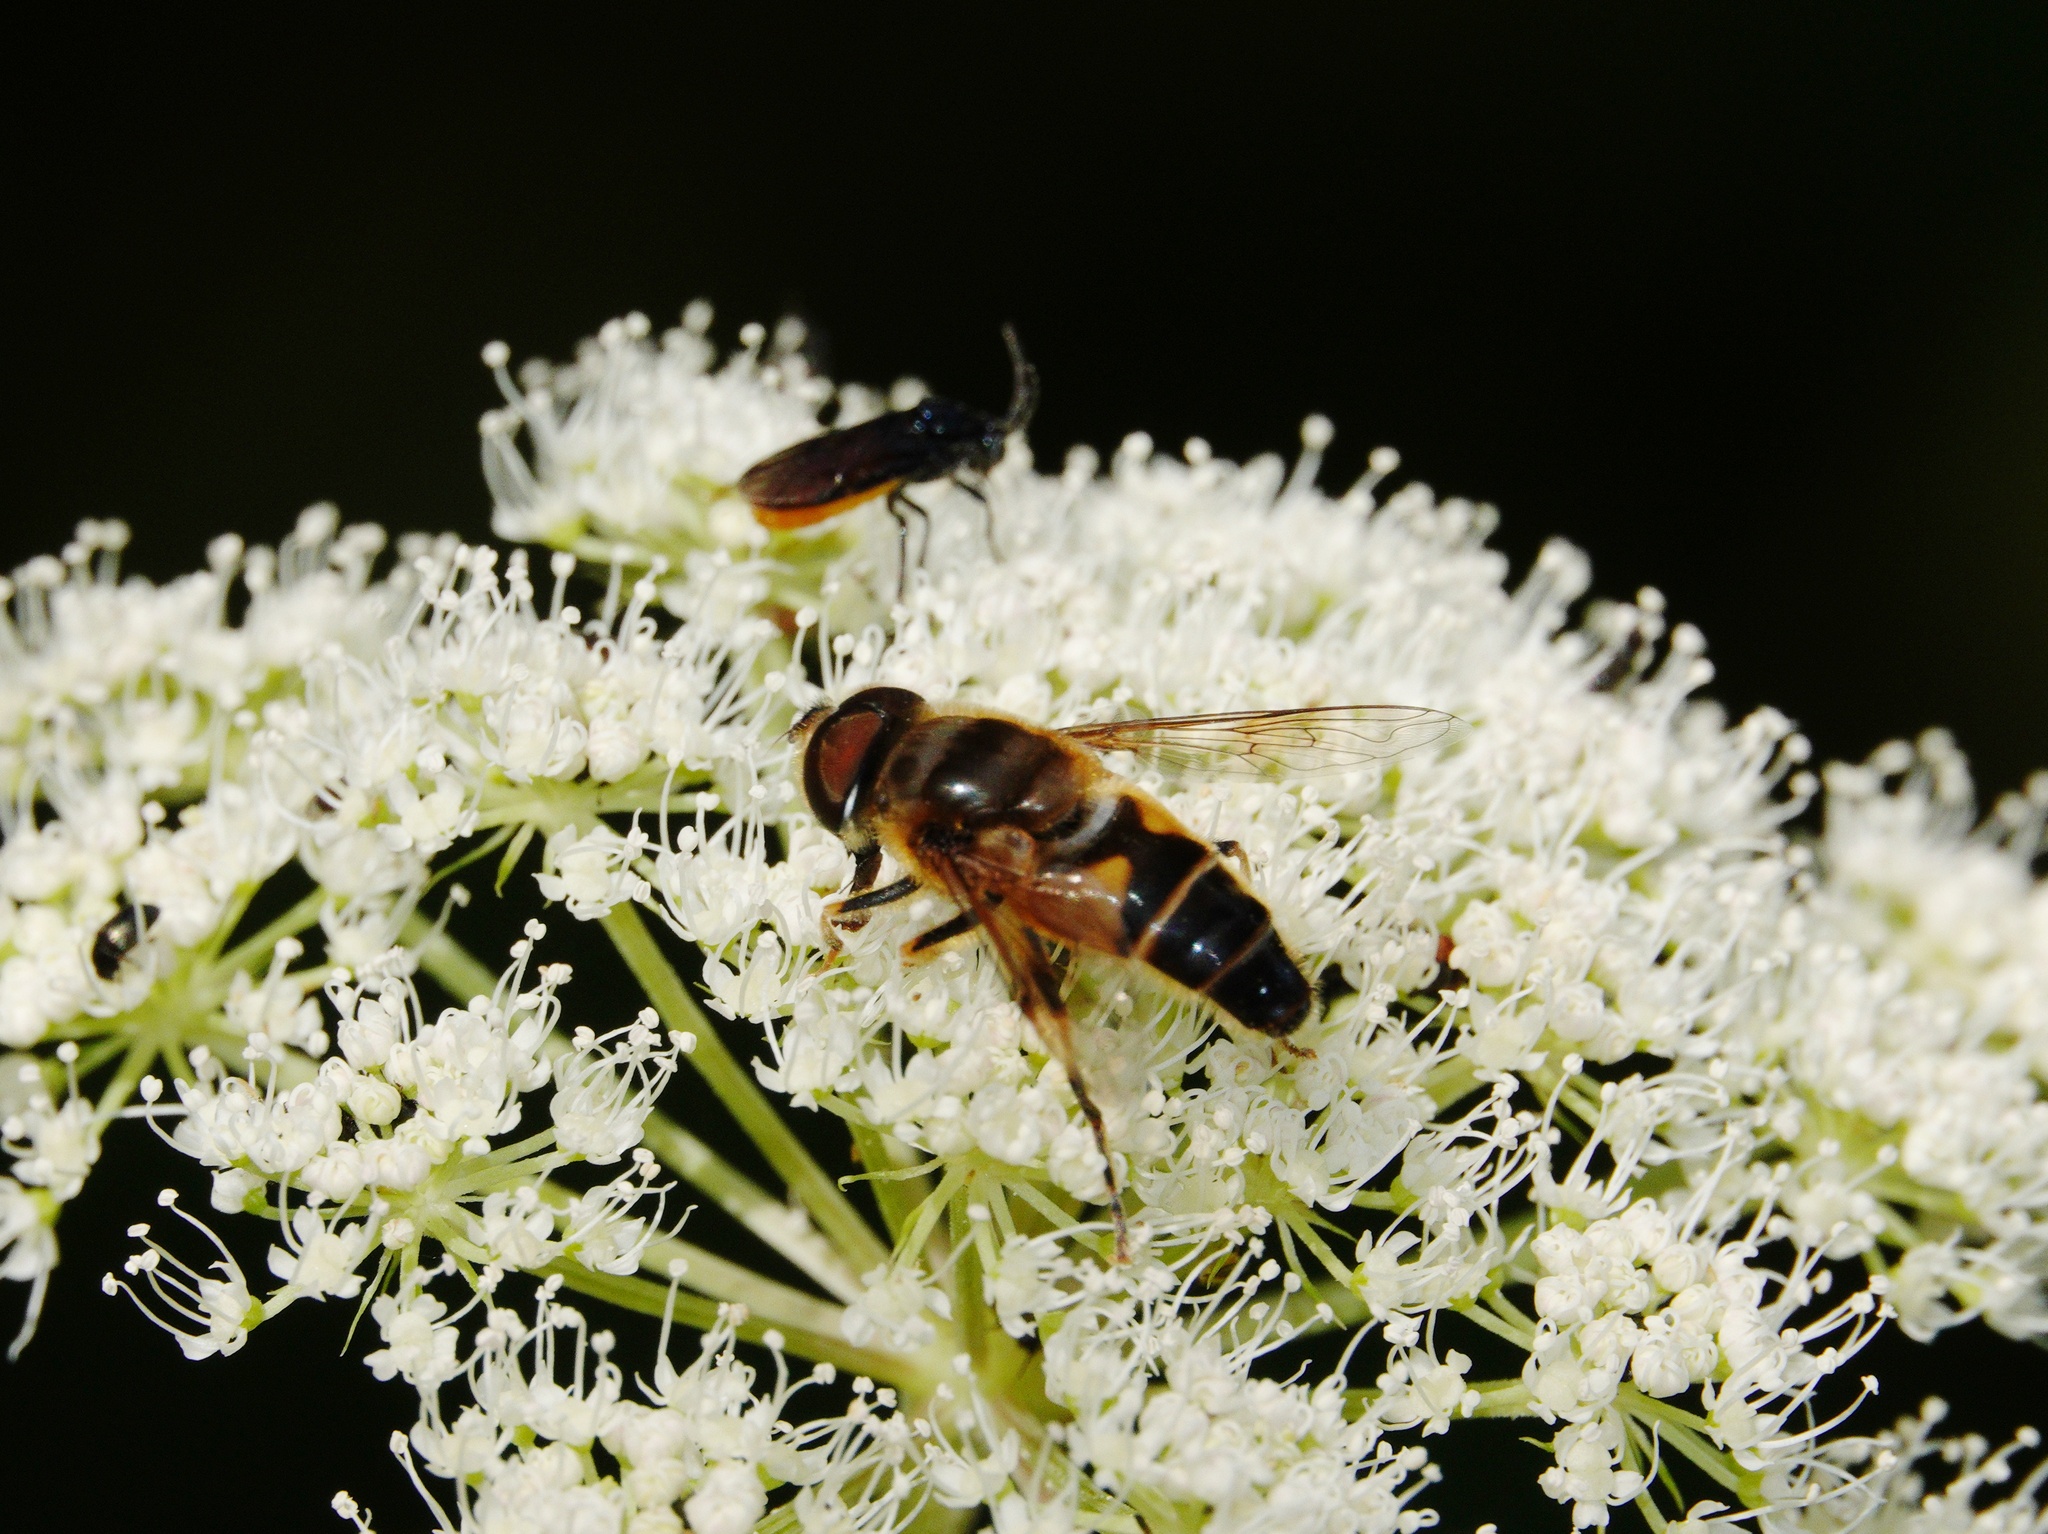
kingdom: Animalia
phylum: Arthropoda
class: Insecta
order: Diptera
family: Syrphidae
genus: Eristalis
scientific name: Eristalis pertinax
